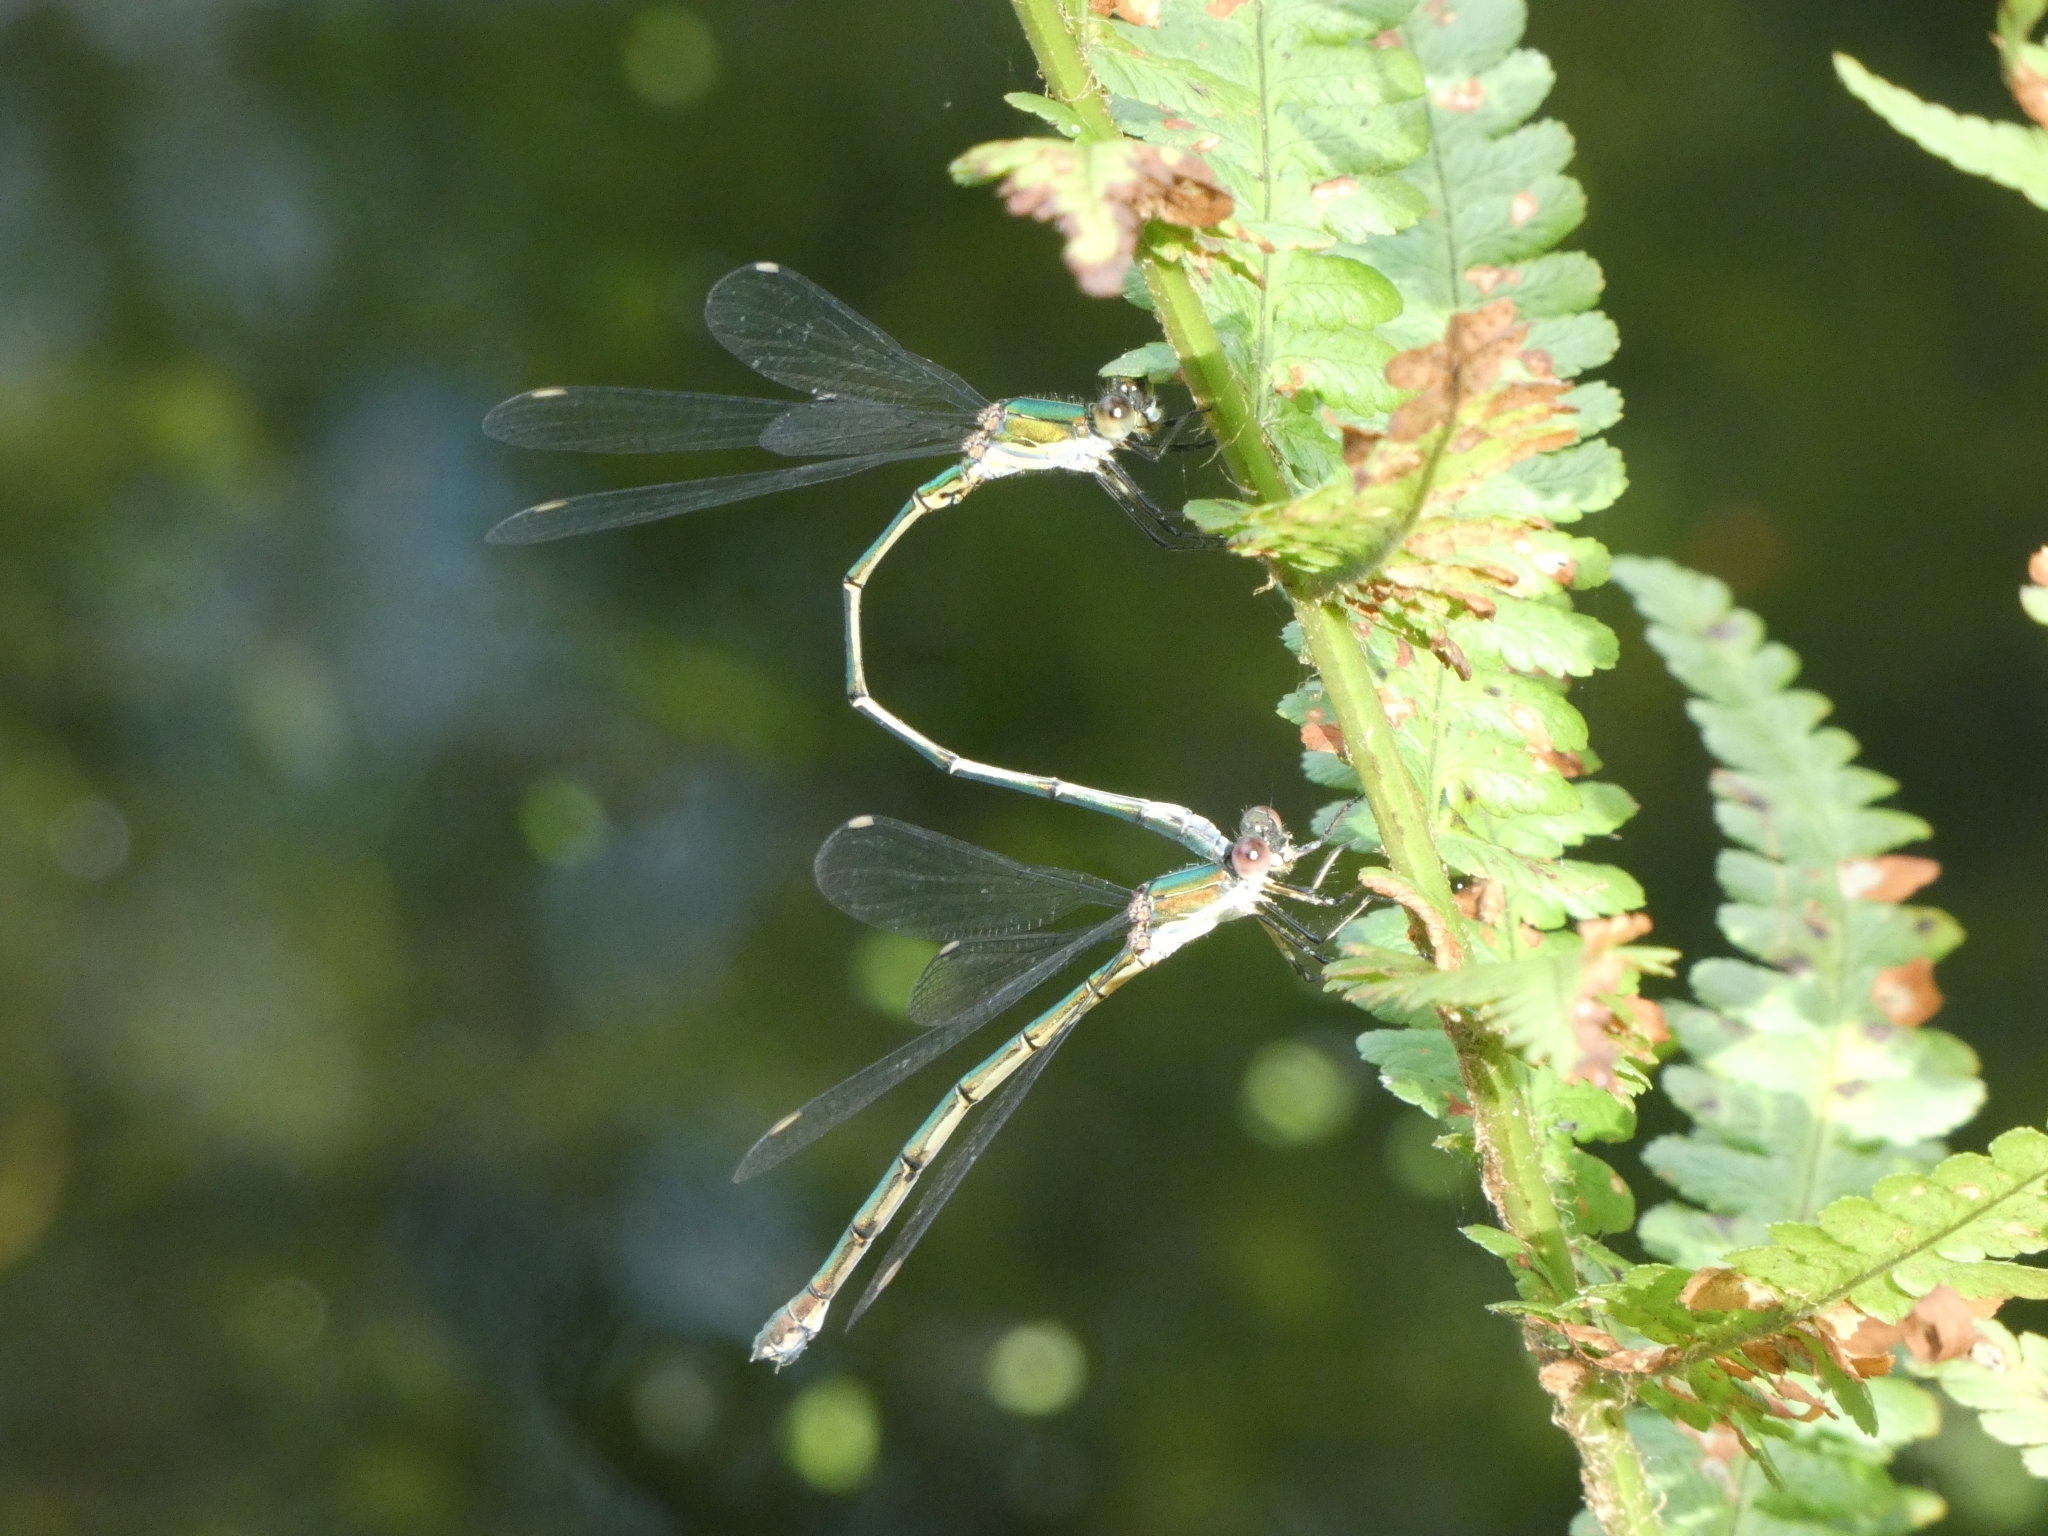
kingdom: Animalia
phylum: Arthropoda
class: Insecta
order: Odonata
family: Lestidae
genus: Chalcolestes
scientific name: Chalcolestes viridis
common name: Green emerald damselfly
